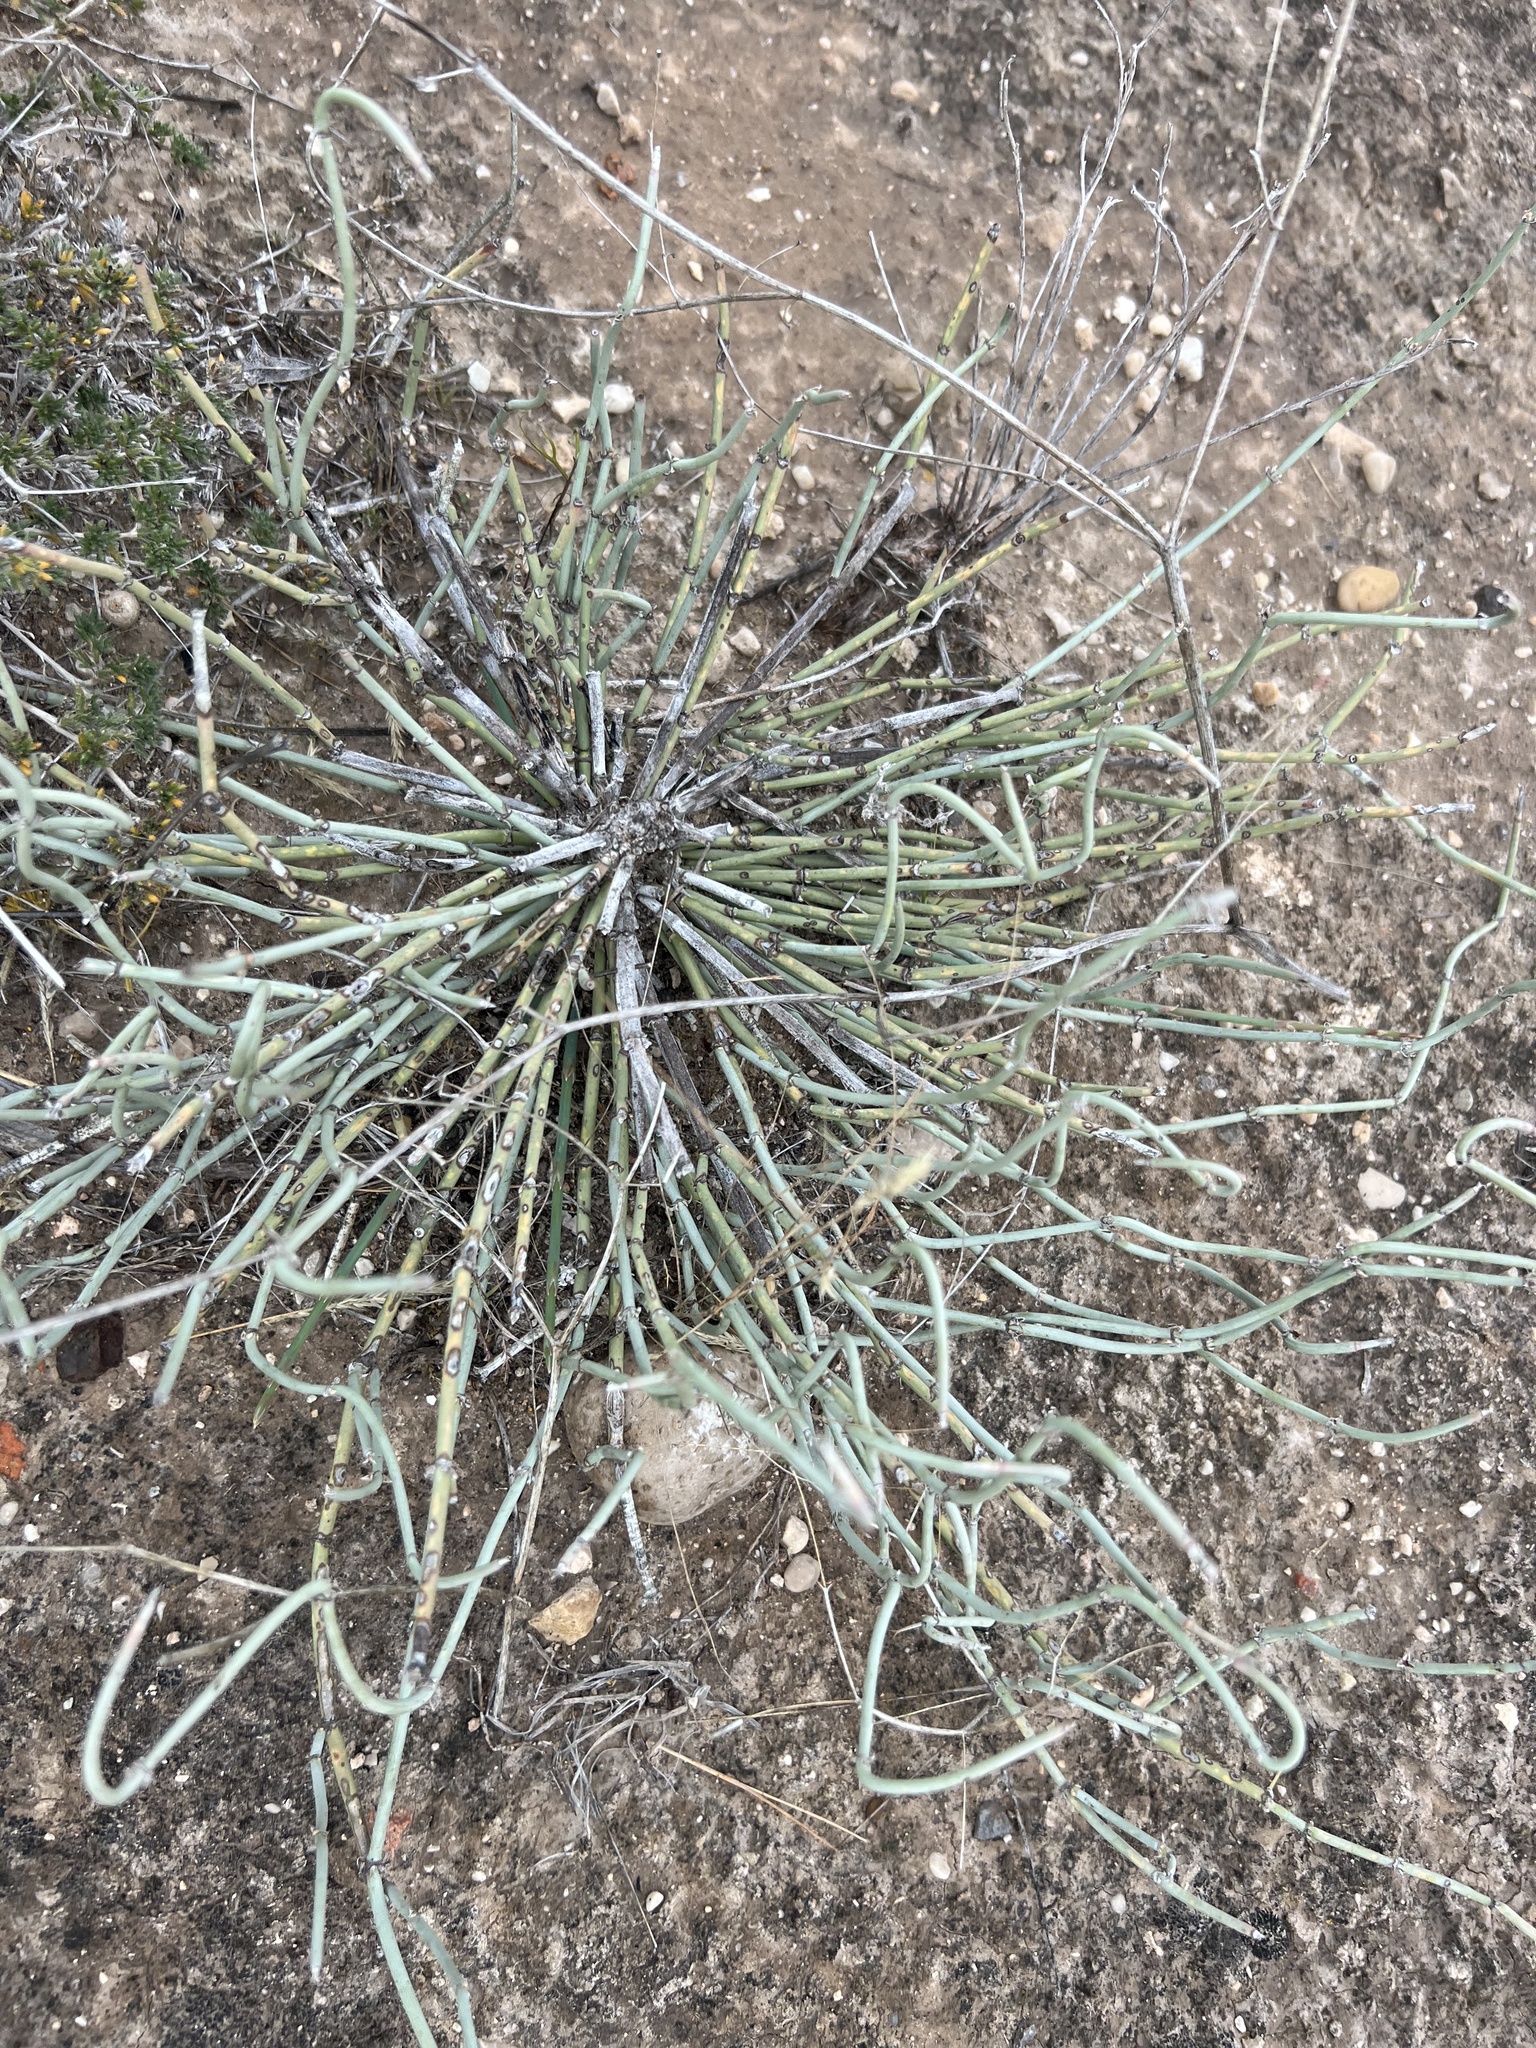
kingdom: Plantae
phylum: Tracheophyta
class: Gnetopsida
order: Ephedrales
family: Ephedraceae
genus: Ephedra
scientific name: Ephedra torreyana
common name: Torrey ephedra
